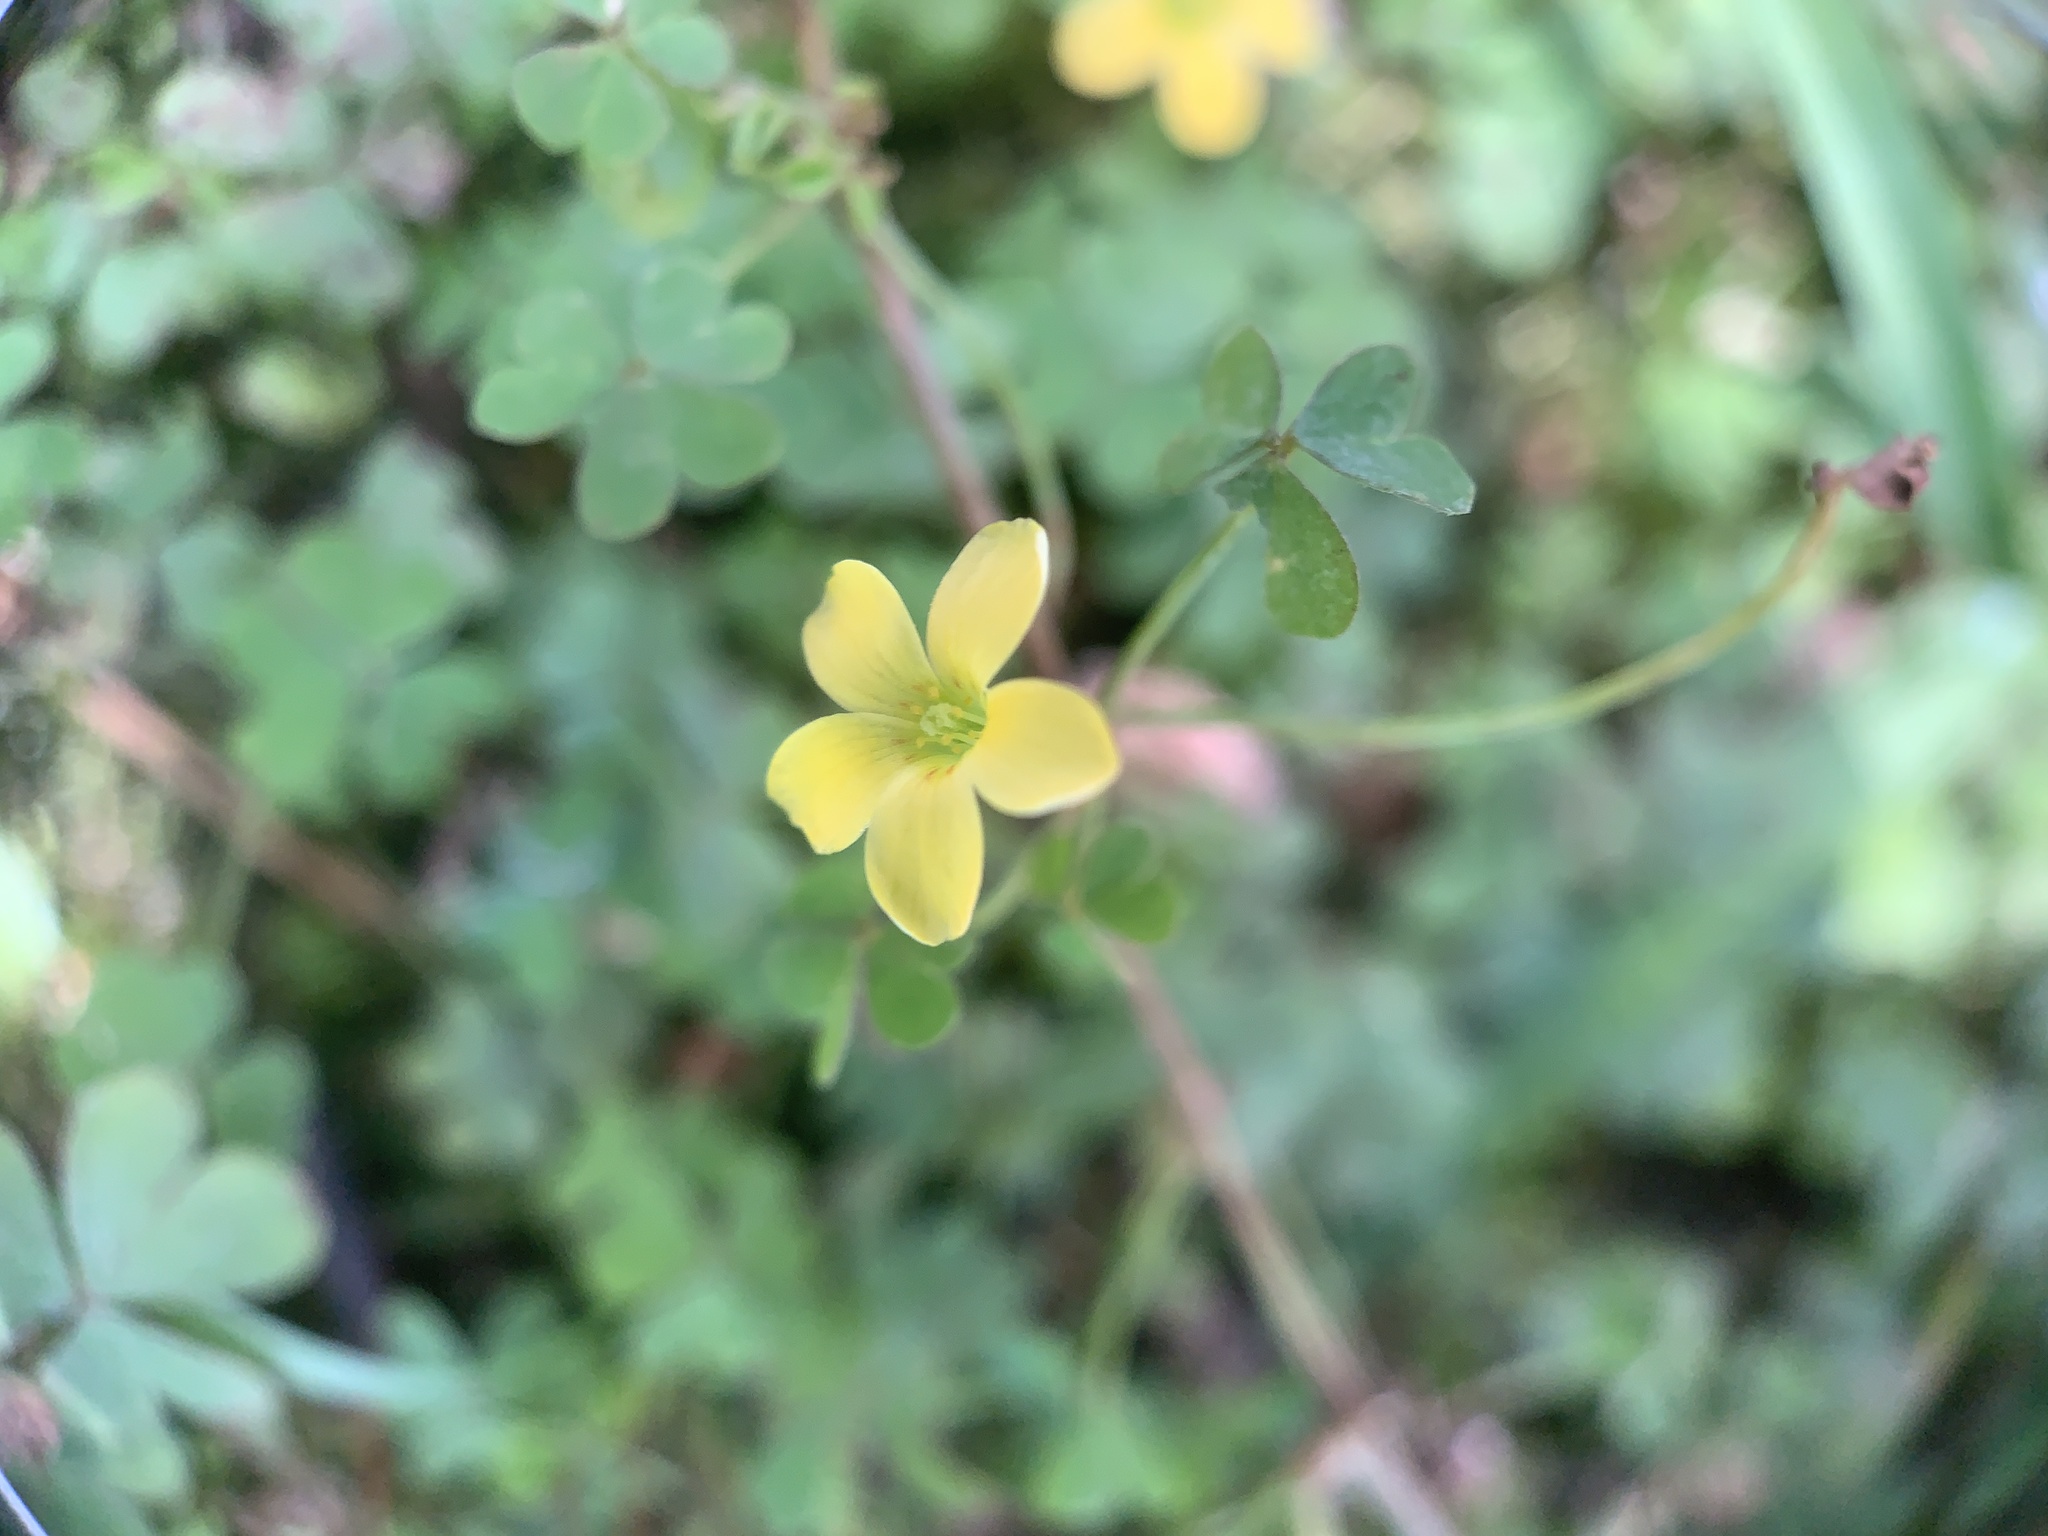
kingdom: Plantae
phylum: Tracheophyta
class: Magnoliopsida
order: Oxalidales
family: Oxalidaceae
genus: Oxalis
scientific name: Oxalis corniculata
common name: Procumbent yellow-sorrel
